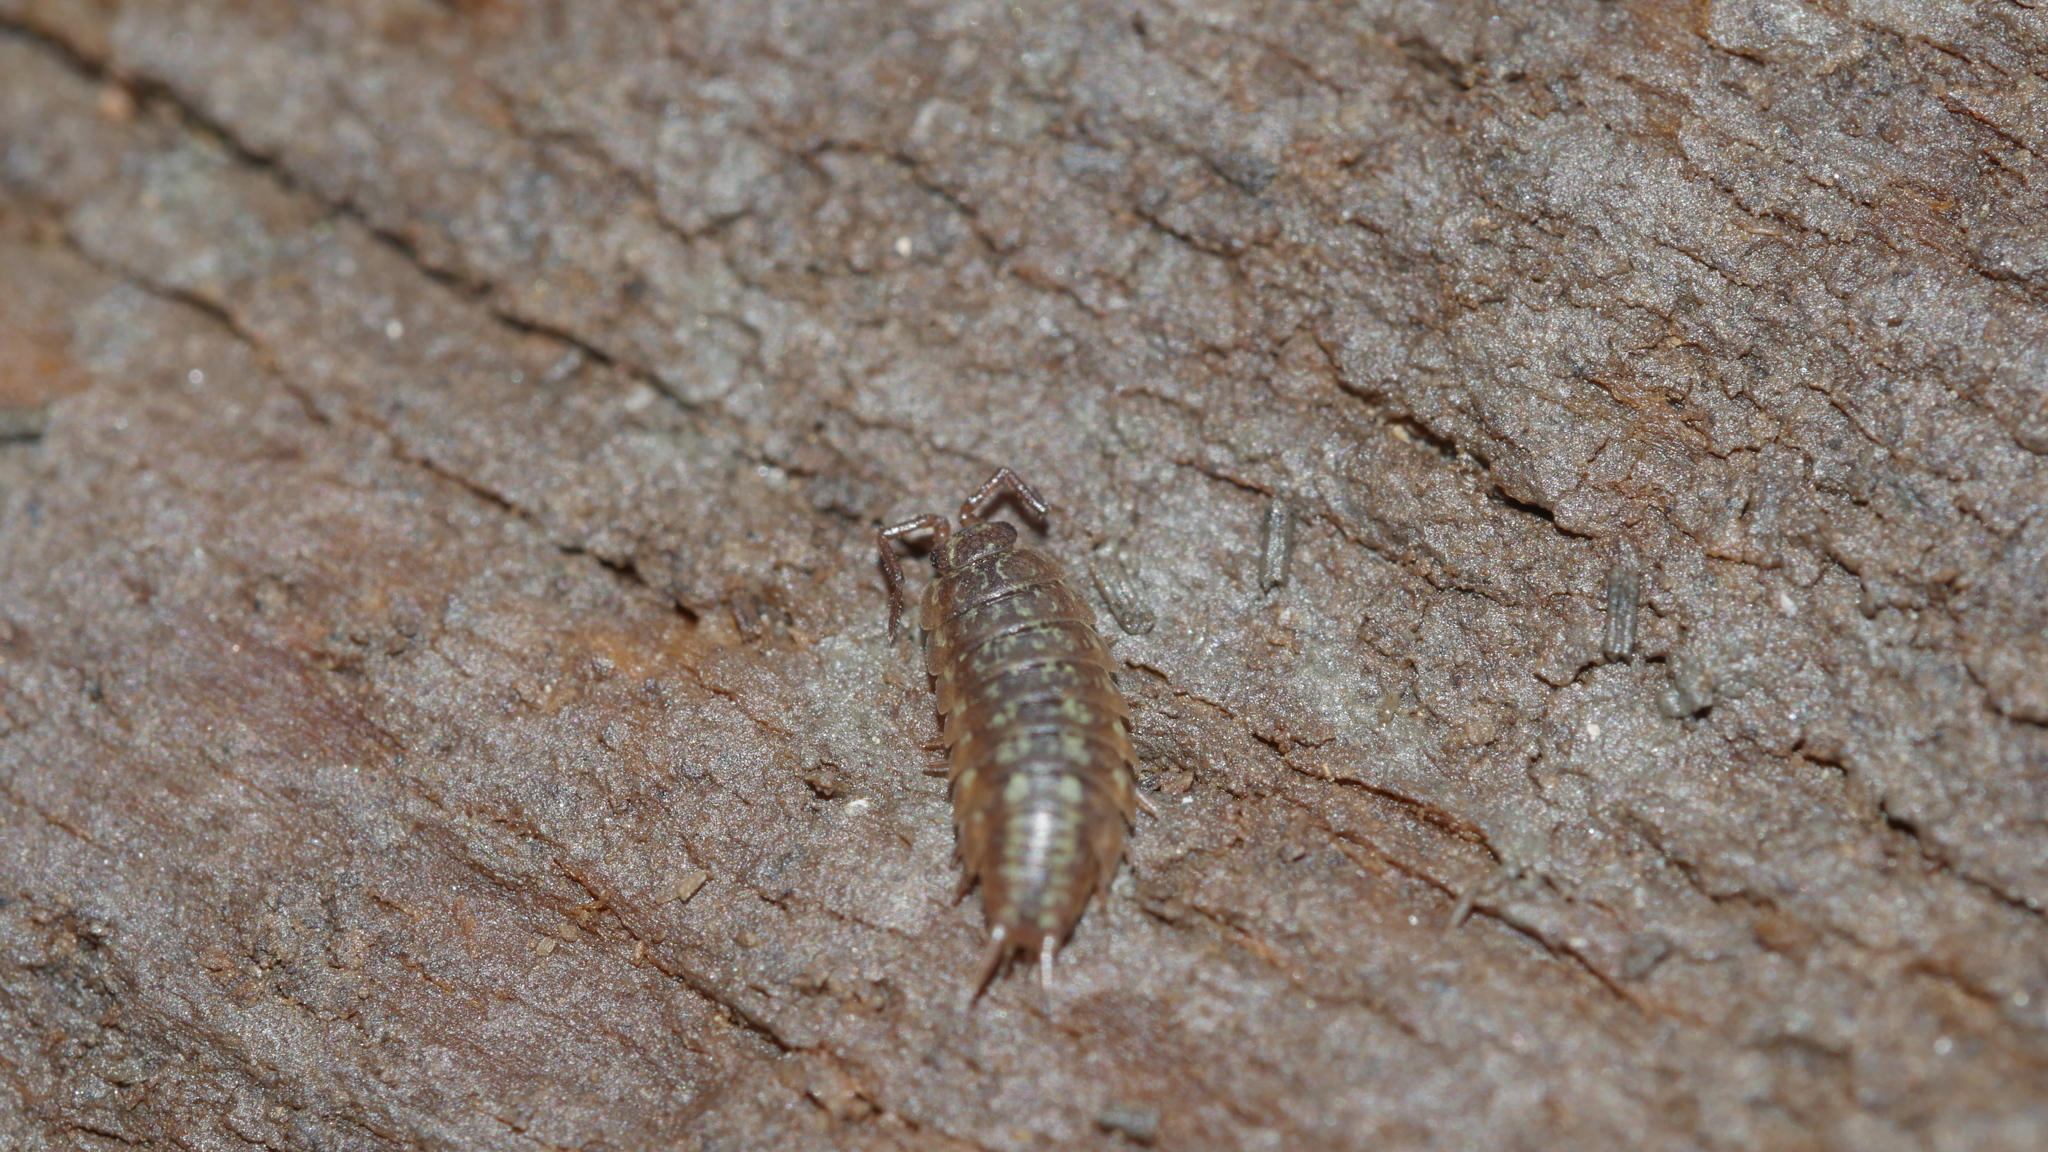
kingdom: Animalia
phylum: Arthropoda
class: Malacostraca
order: Isopoda
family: Halophilosciidae
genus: Littorophiloscia
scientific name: Littorophiloscia vittata
